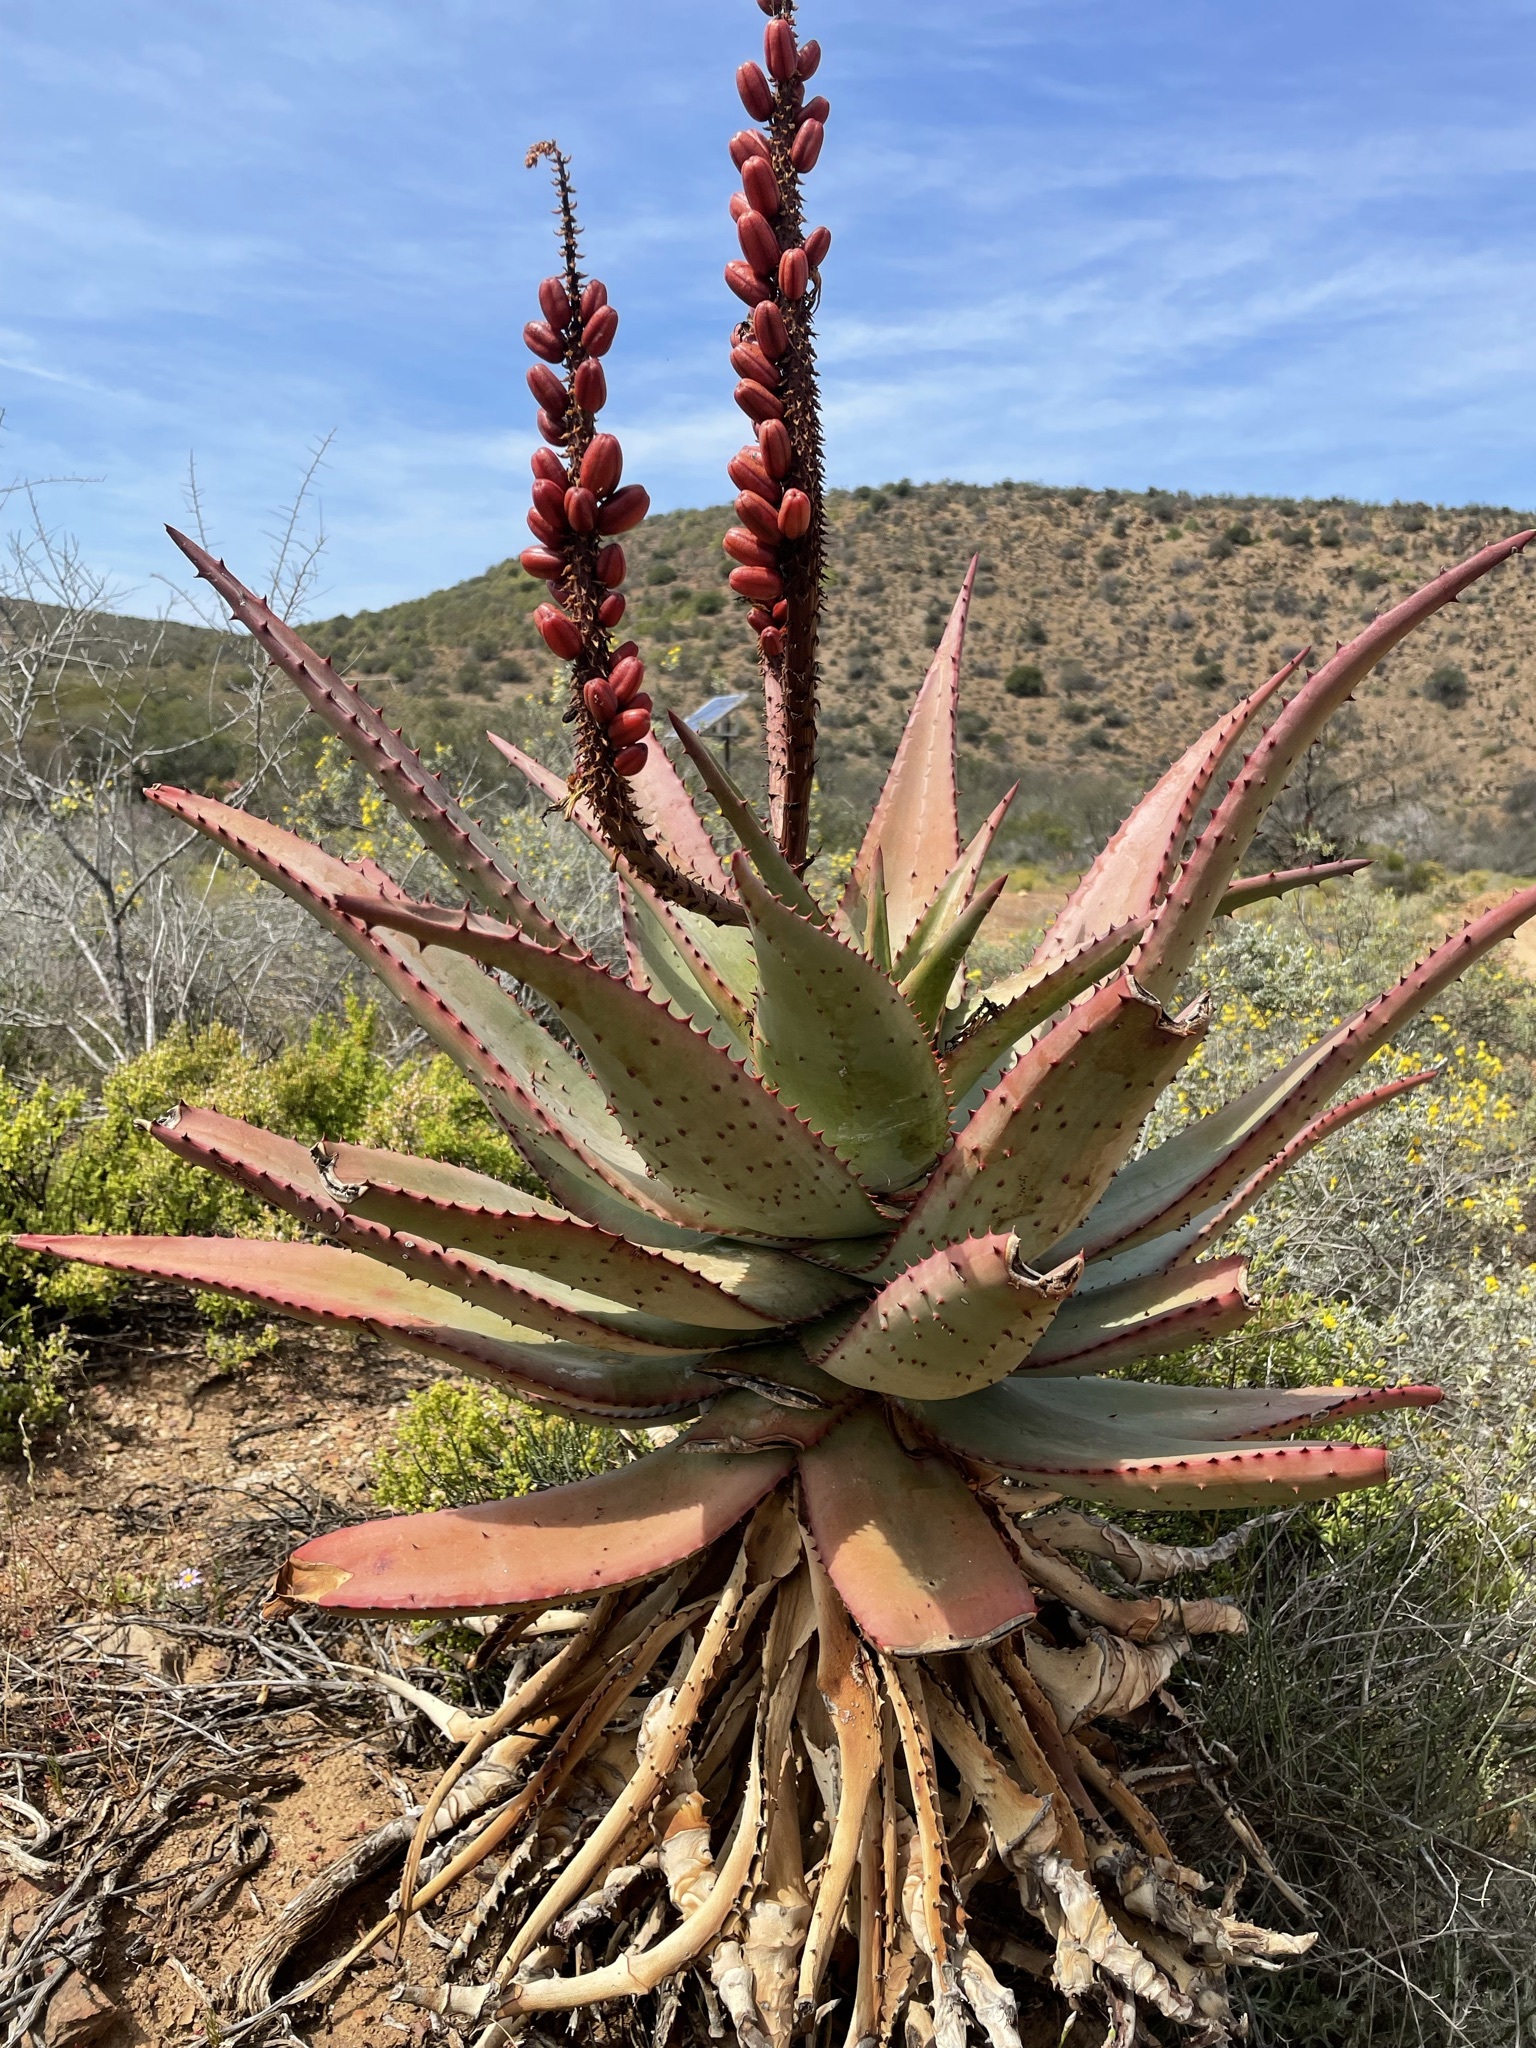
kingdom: Plantae
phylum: Tracheophyta
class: Liliopsida
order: Asparagales
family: Asphodelaceae
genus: Aloe
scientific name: Aloe ferox
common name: Bitter aloe
